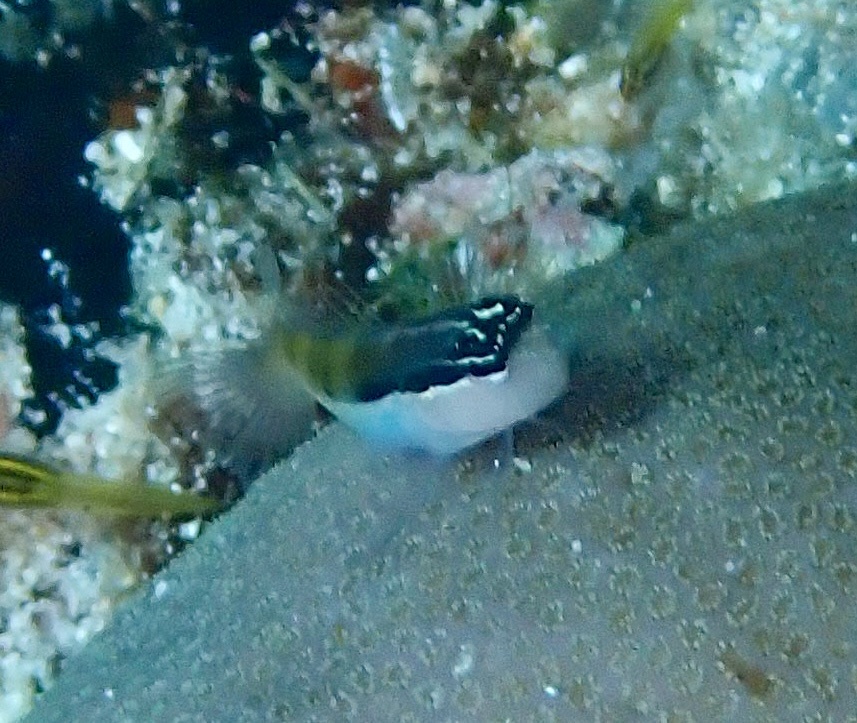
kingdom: Animalia
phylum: Chordata
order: Perciformes
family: Blenniidae
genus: Ecsenius
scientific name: Ecsenius bandanus
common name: Banda clown blenny
